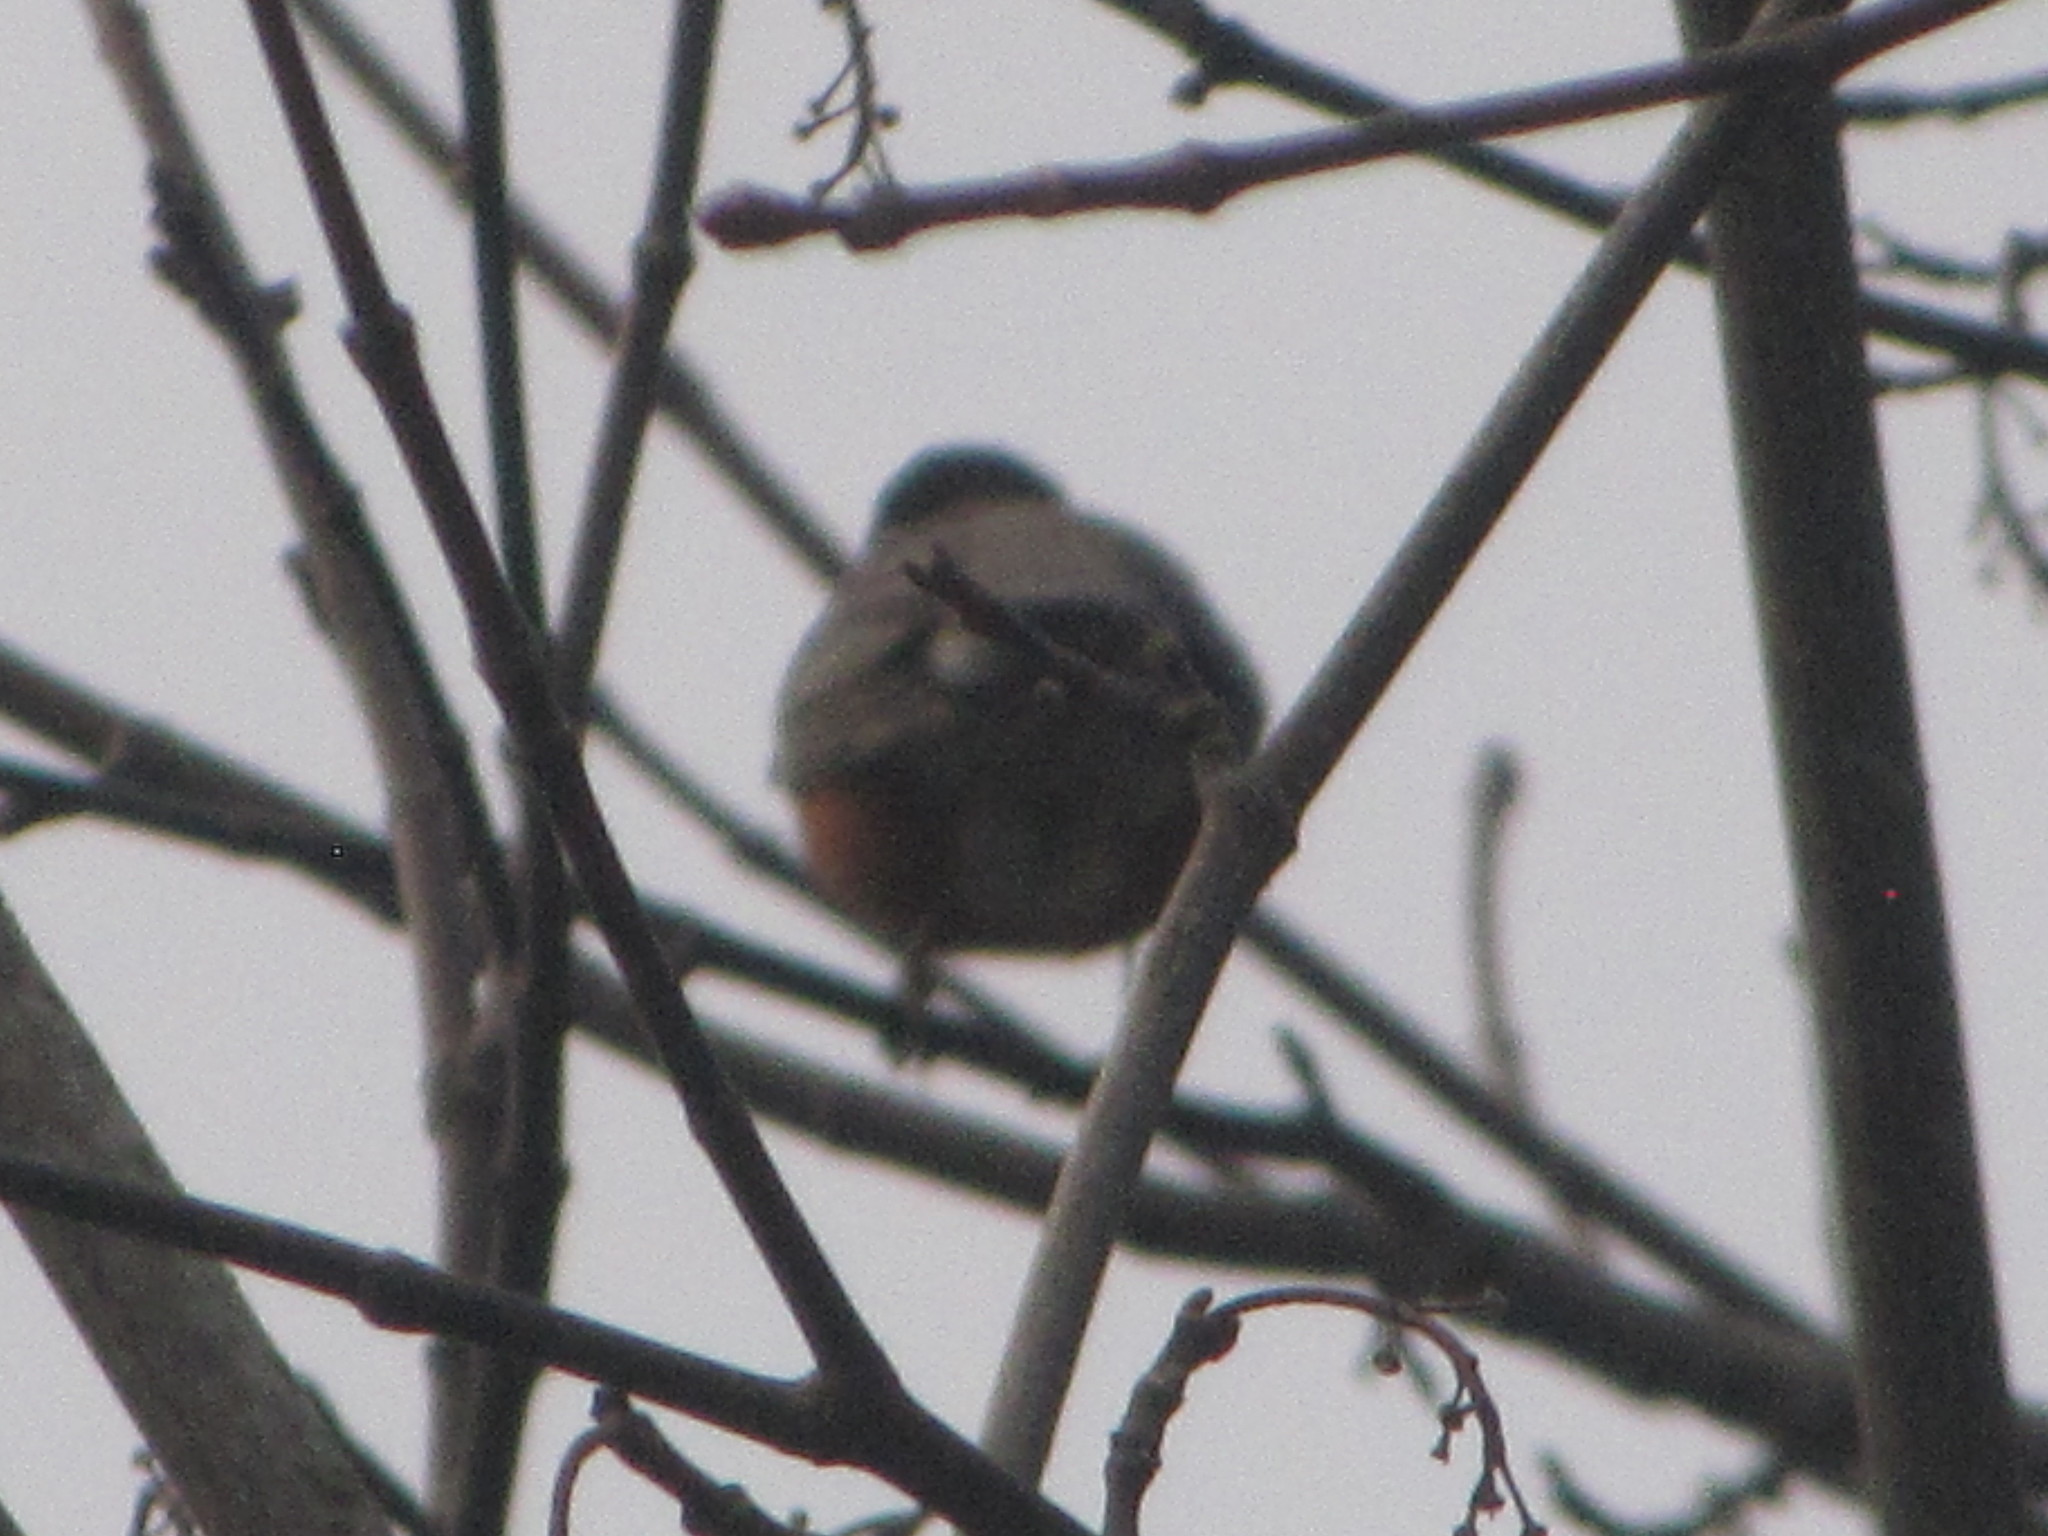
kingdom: Animalia
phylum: Chordata
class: Aves
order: Passeriformes
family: Turdidae
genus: Turdus
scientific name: Turdus migratorius
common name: American robin
